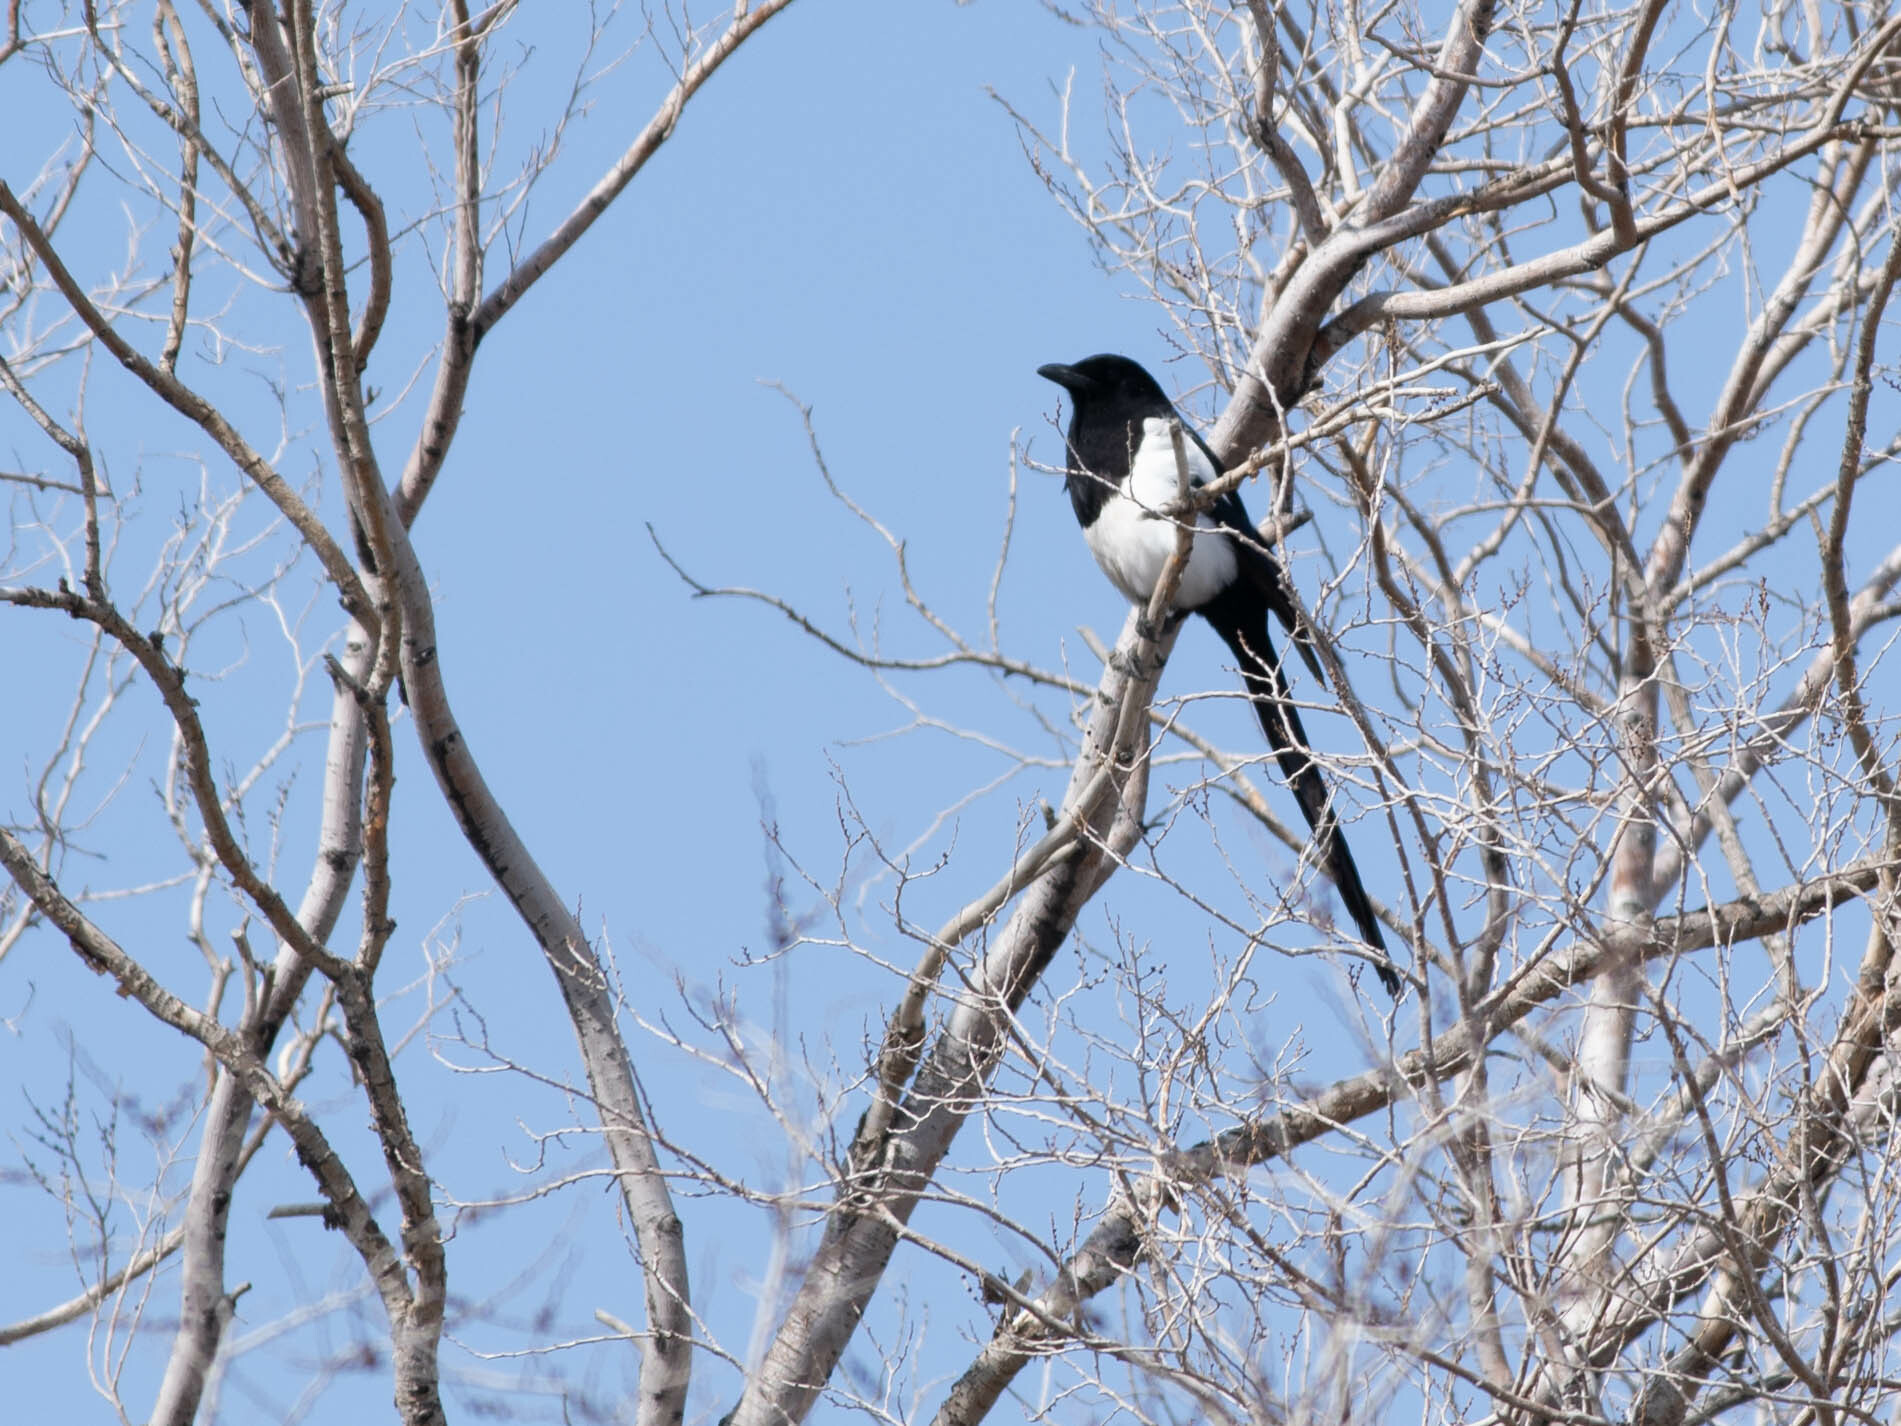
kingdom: Animalia
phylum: Chordata
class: Aves
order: Passeriformes
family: Corvidae
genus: Pica
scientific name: Pica hudsonia
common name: Black-billed magpie
